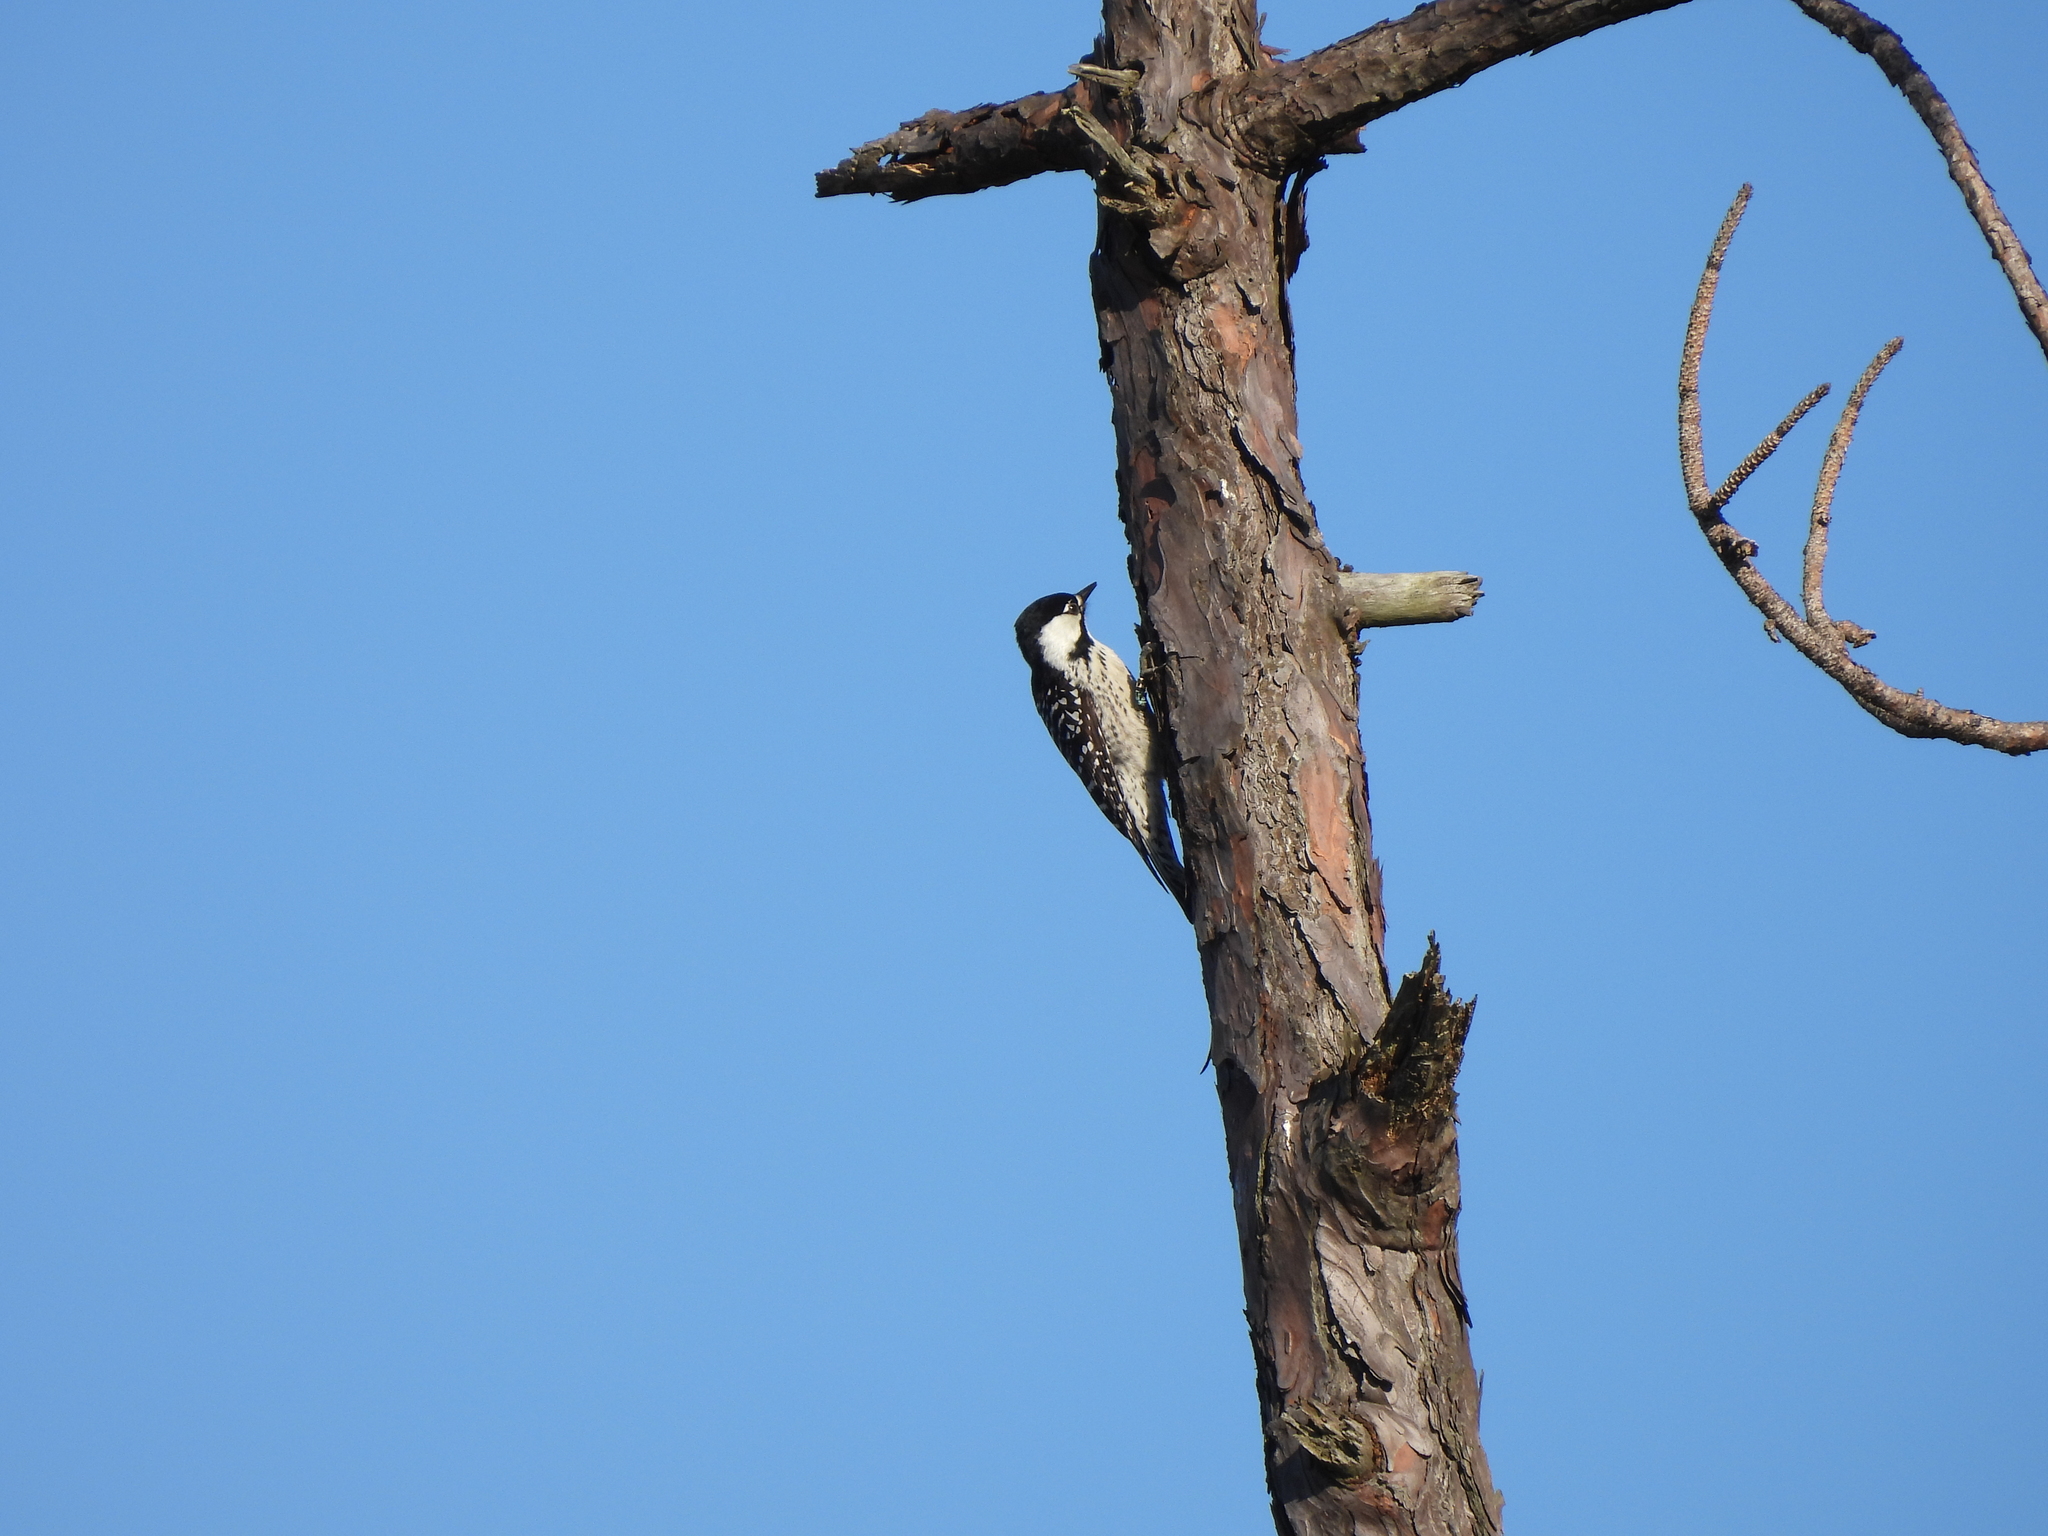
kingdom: Animalia
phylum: Chordata
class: Aves
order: Piciformes
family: Picidae
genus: Leuconotopicus
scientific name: Leuconotopicus borealis
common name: Red-cockaded woodpecker
